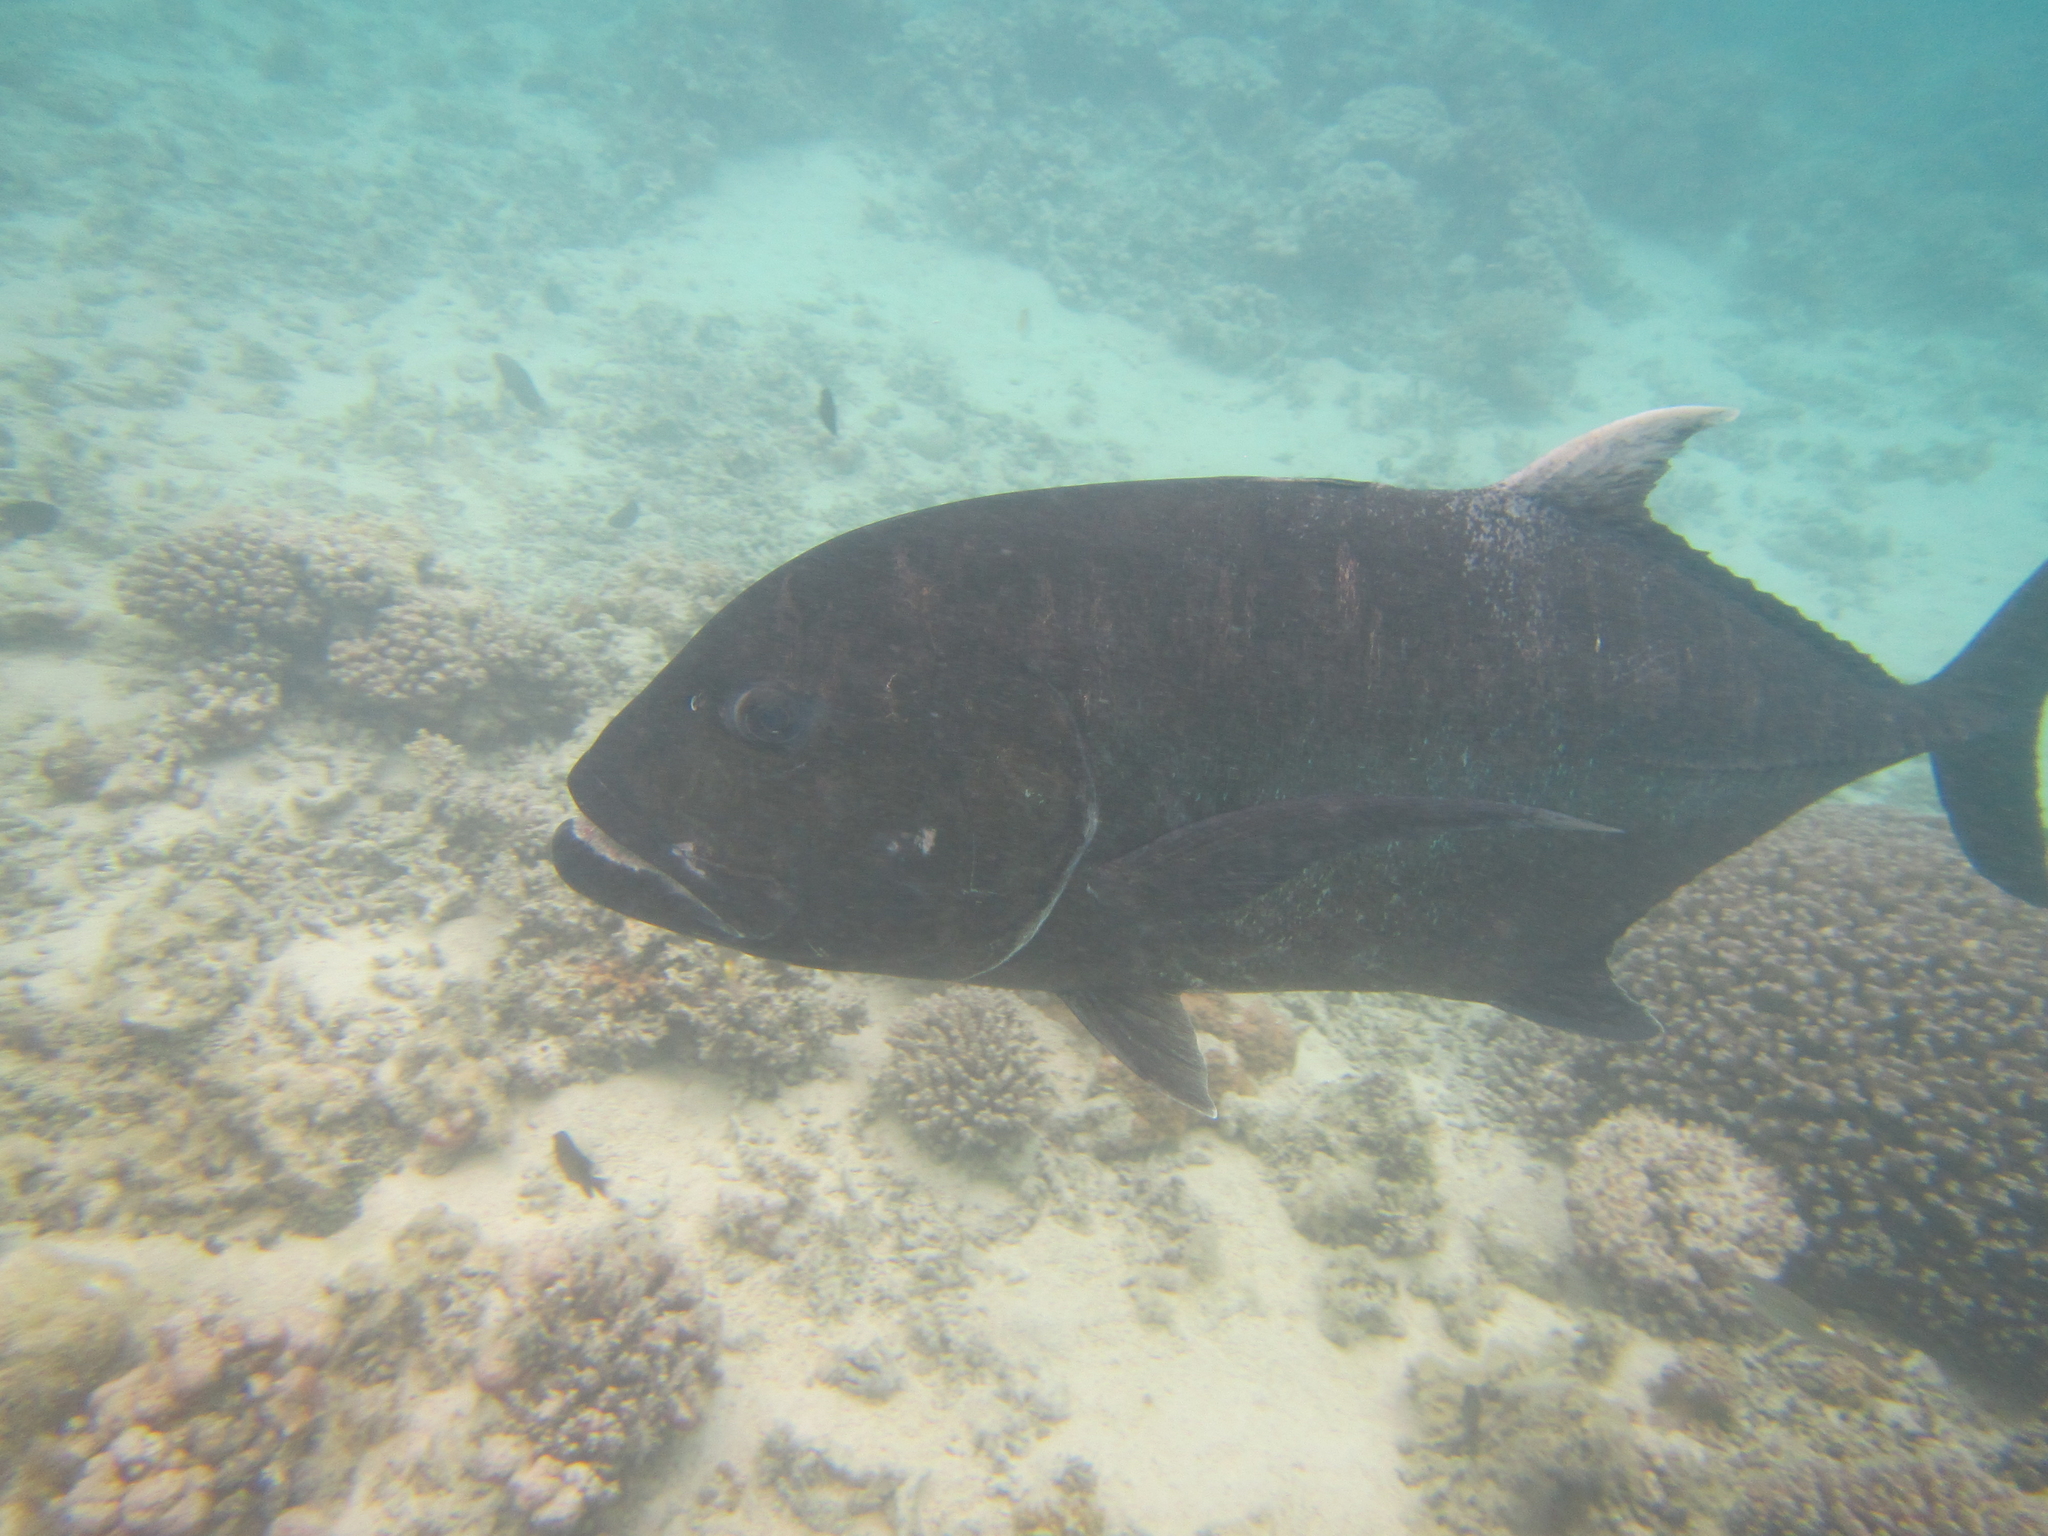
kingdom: Animalia
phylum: Chordata
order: Perciformes
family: Carangidae
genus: Caranx
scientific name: Caranx ignobilis
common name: Giant trevally
